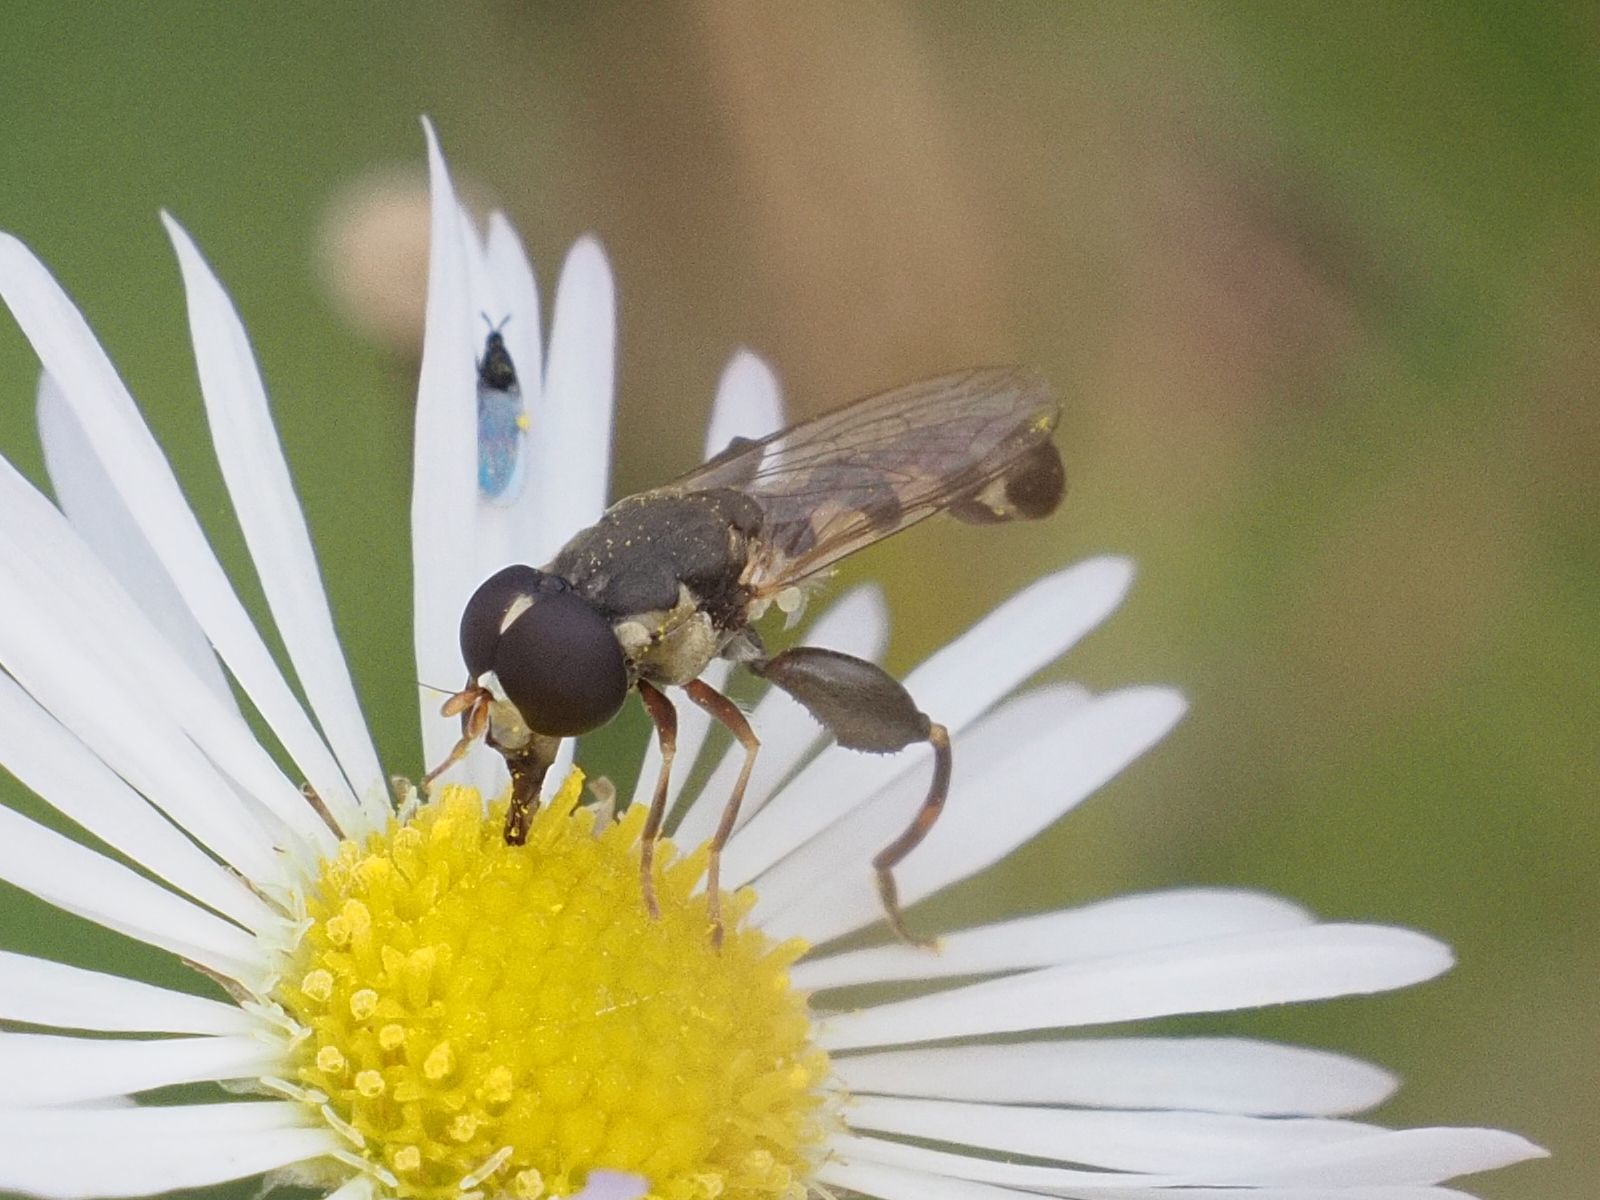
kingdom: Animalia
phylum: Arthropoda
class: Insecta
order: Diptera
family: Syrphidae
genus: Syritta
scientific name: Syritta pipiens
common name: Hover fly
